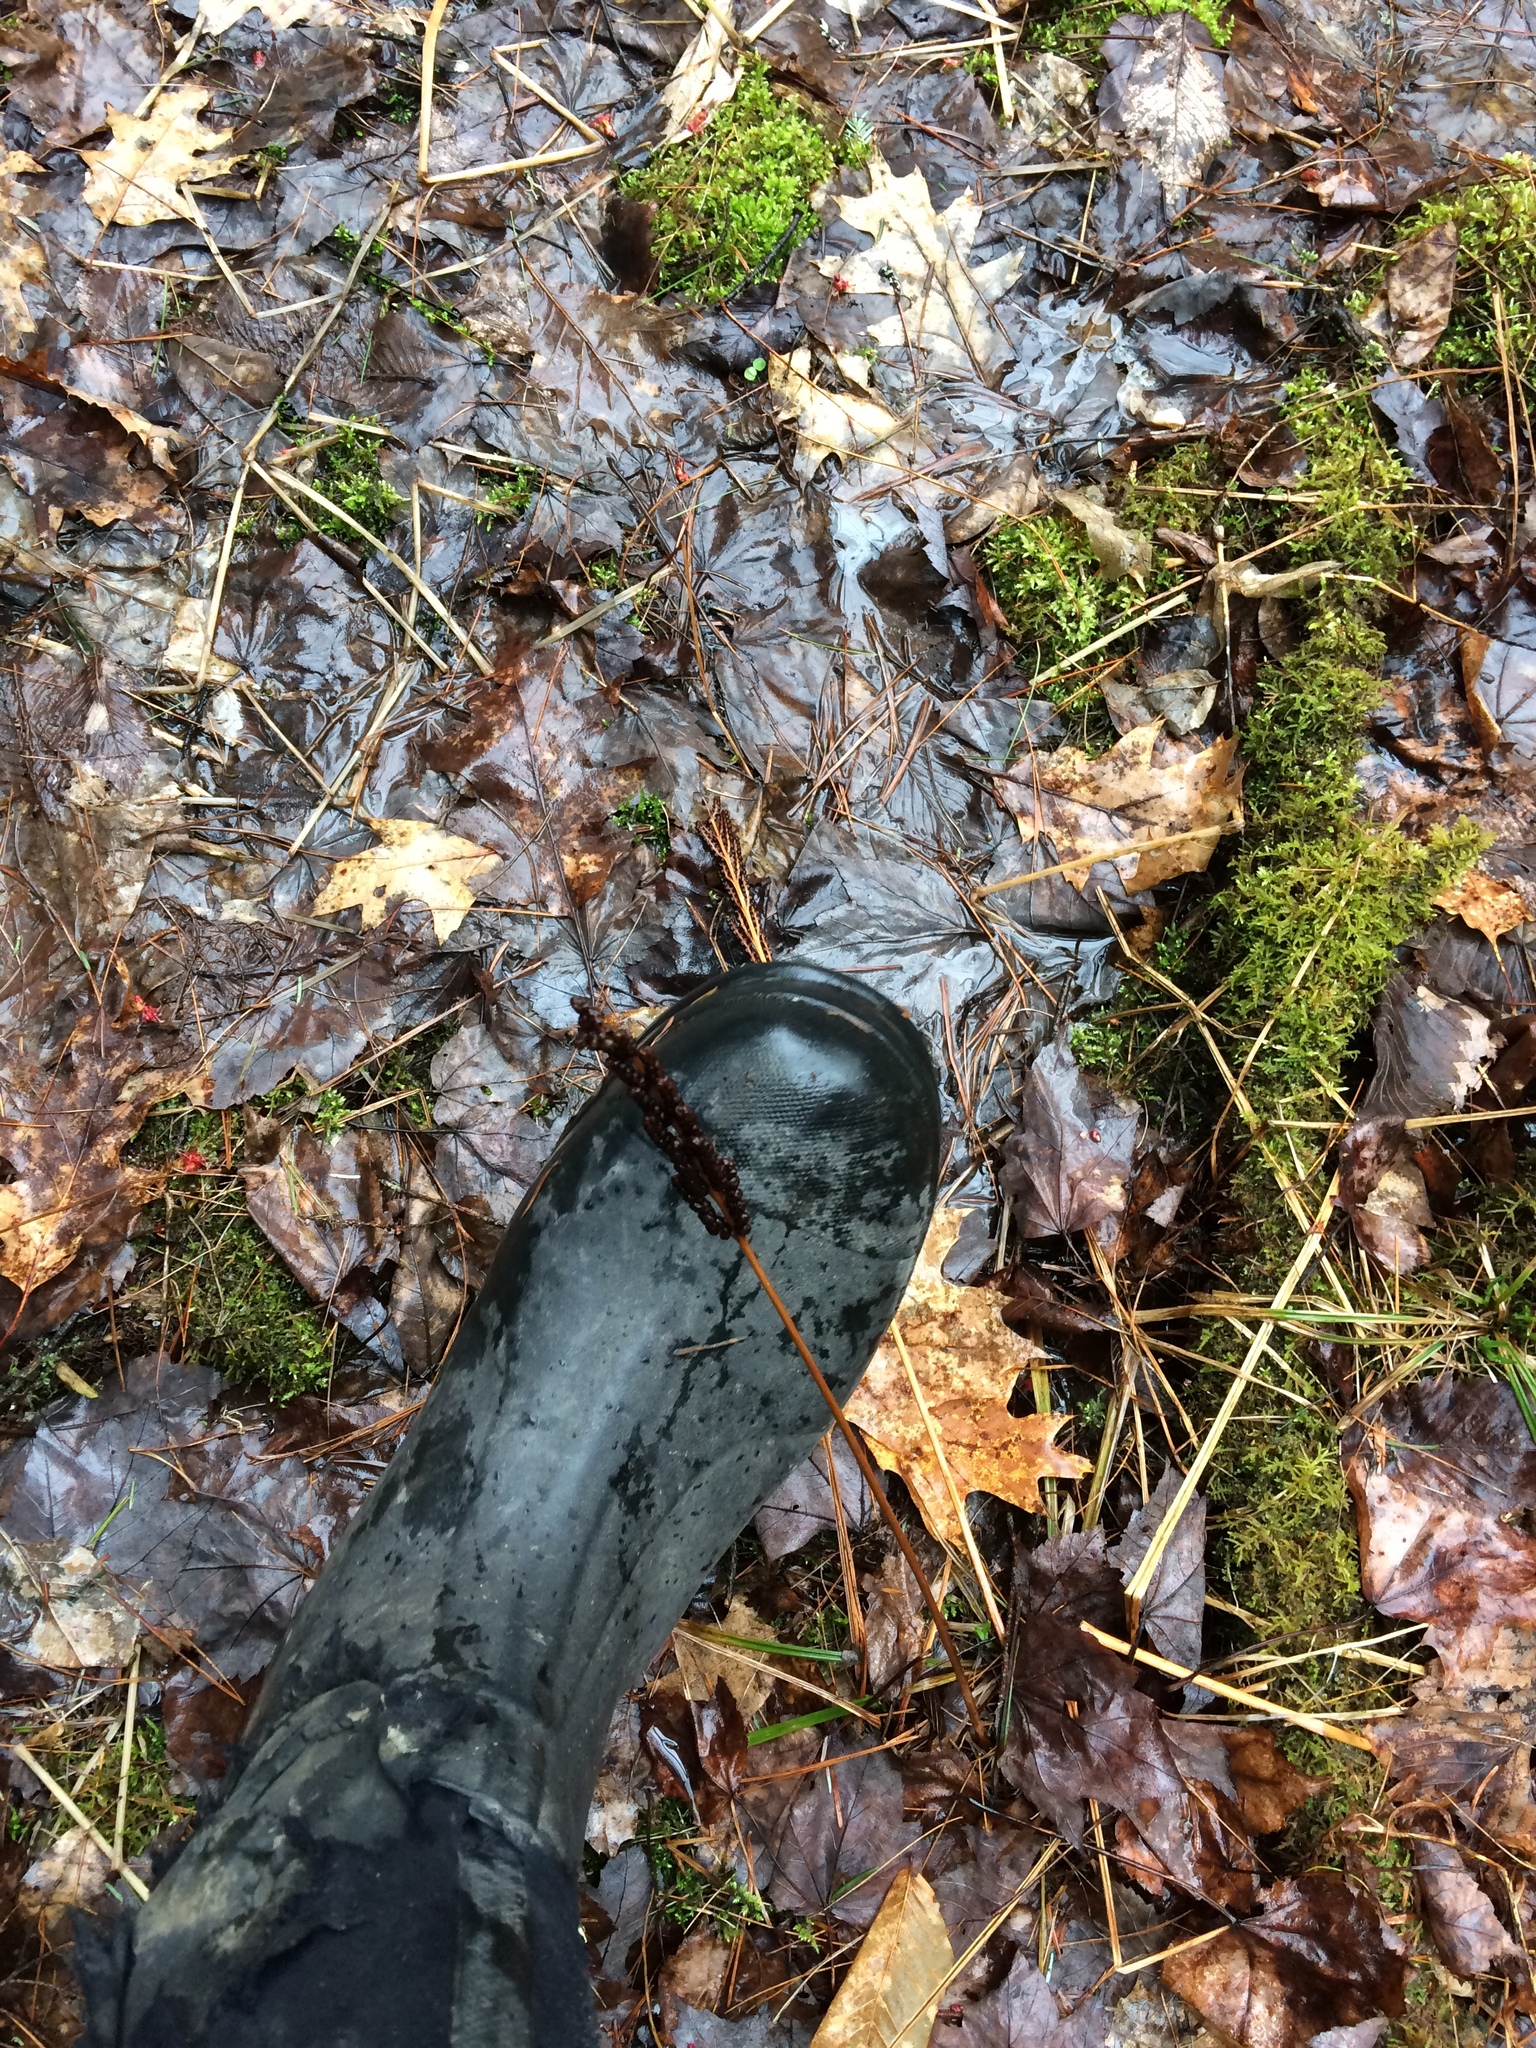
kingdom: Plantae
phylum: Tracheophyta
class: Polypodiopsida
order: Polypodiales
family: Onocleaceae
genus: Onoclea
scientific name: Onoclea sensibilis
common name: Sensitive fern
